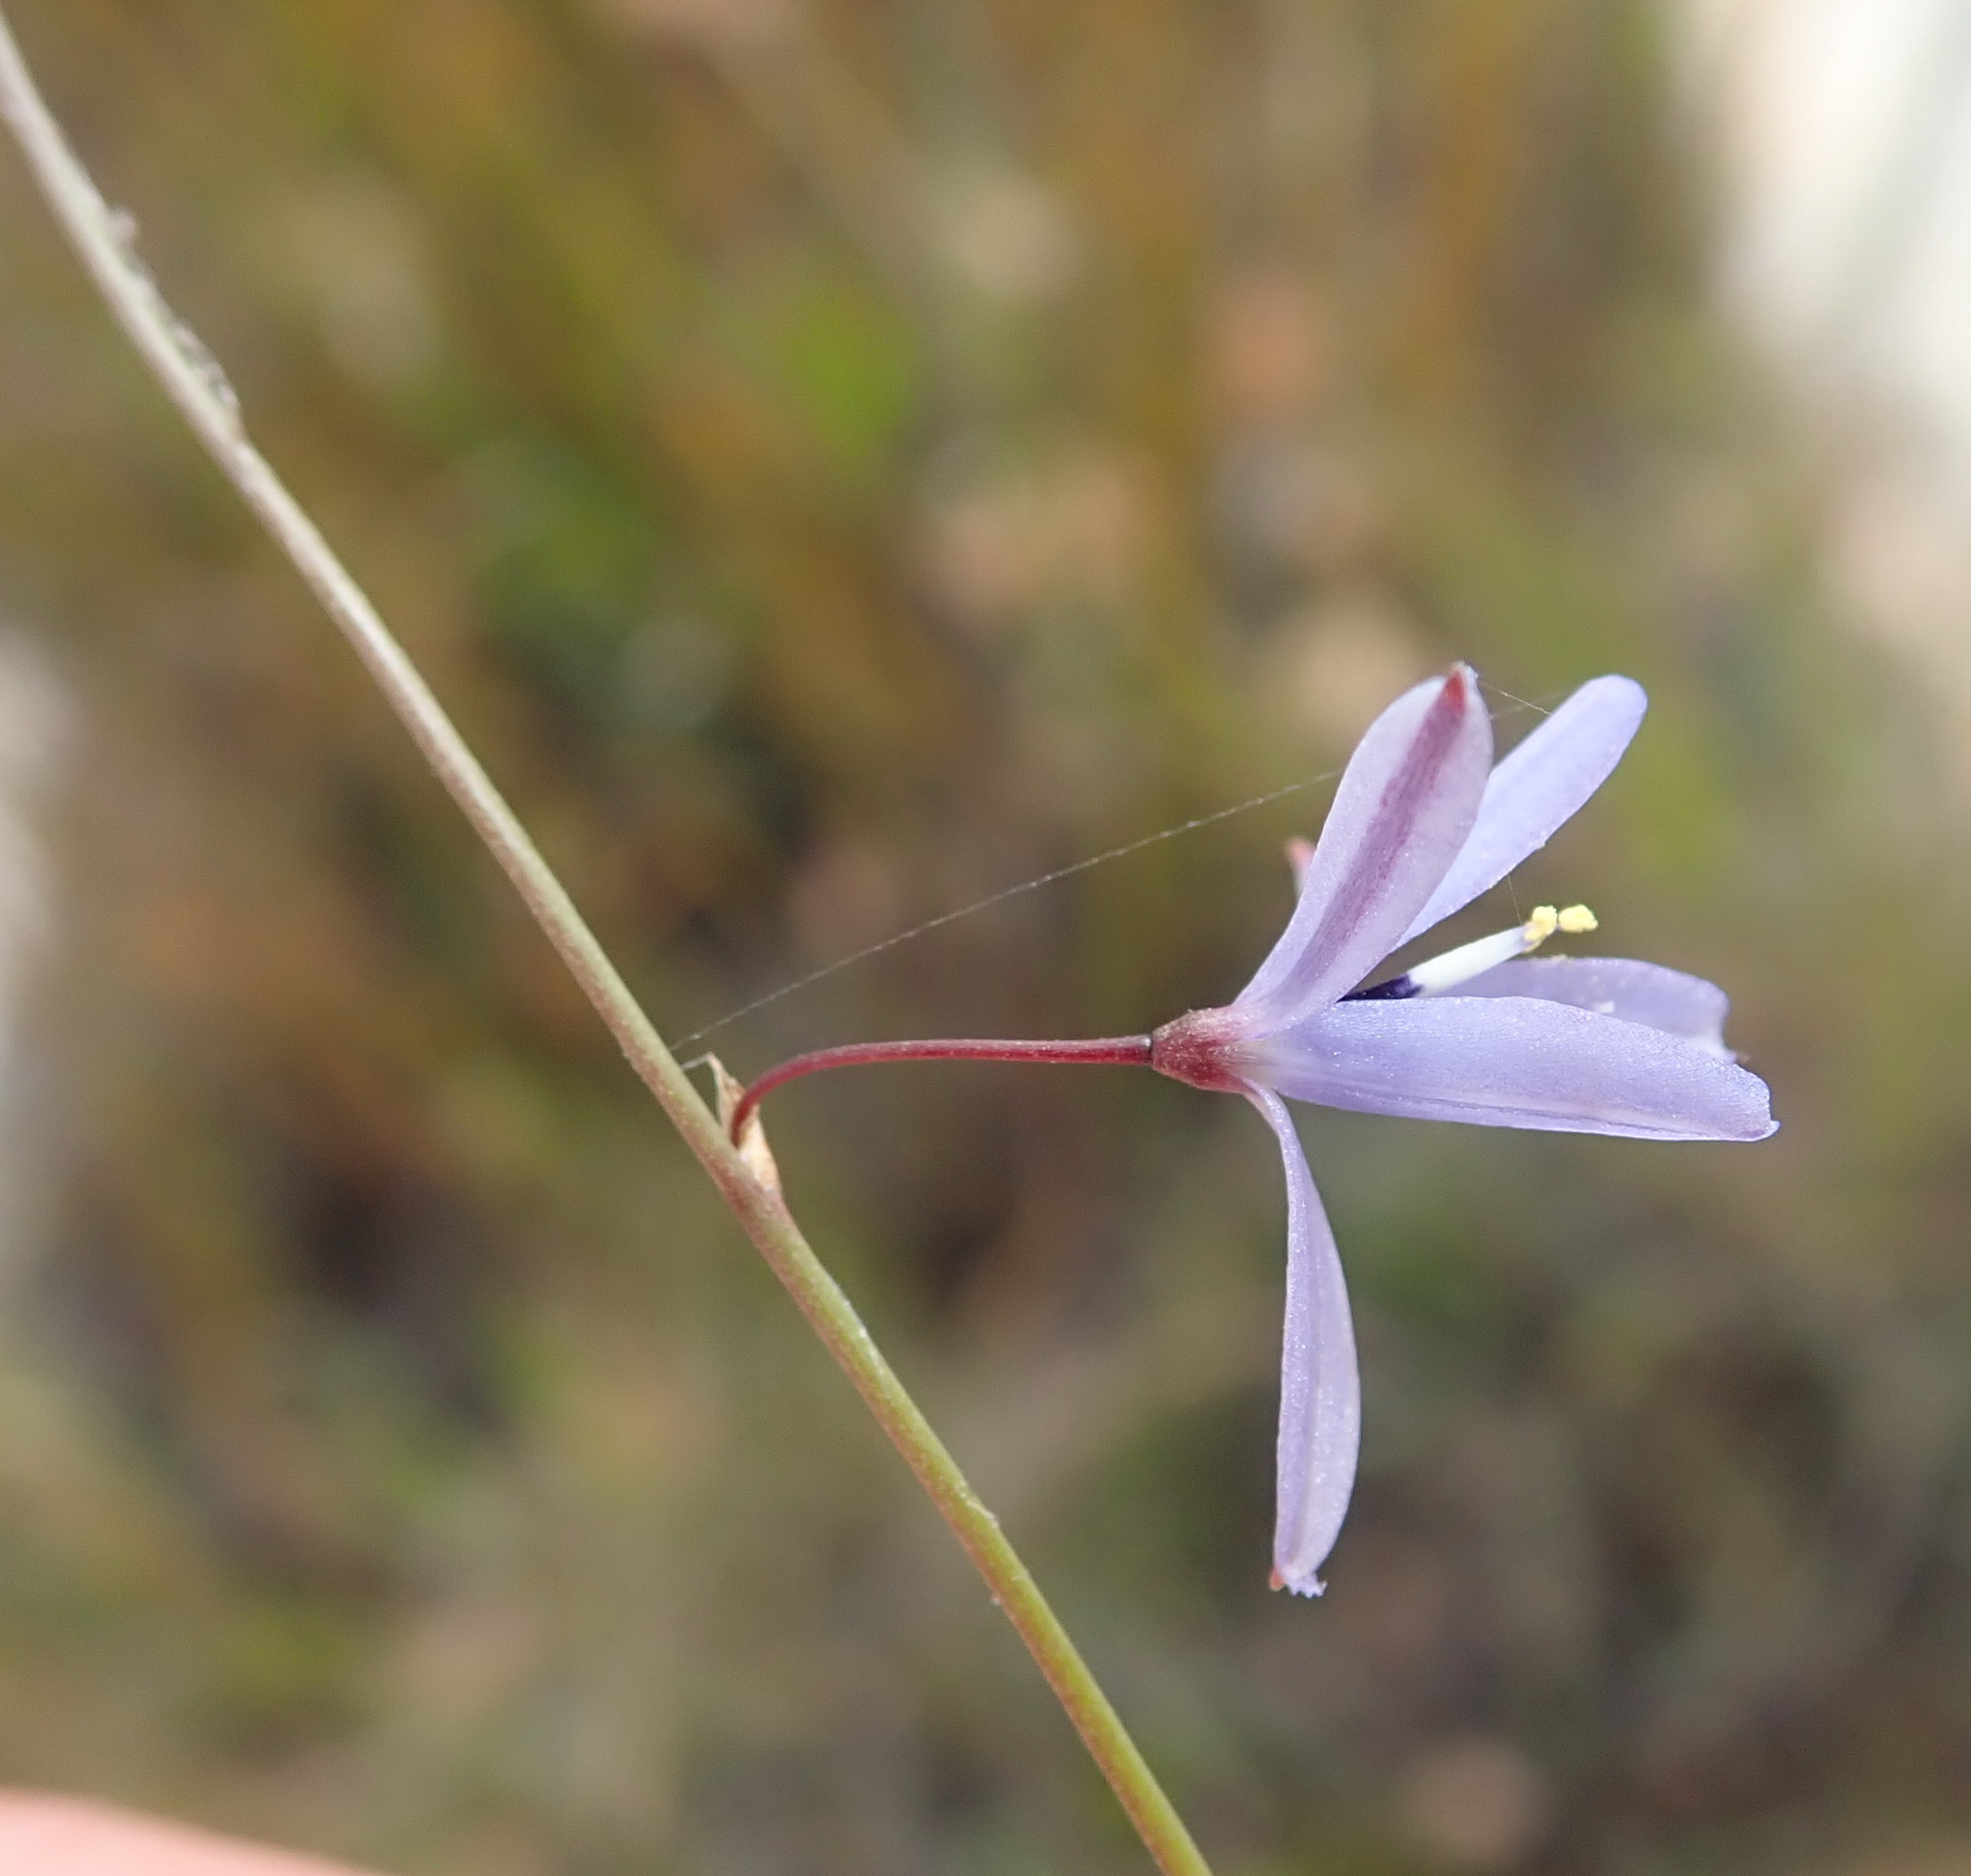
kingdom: Plantae
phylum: Tracheophyta
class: Liliopsida
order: Asparagales
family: Asphodelaceae
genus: Caesia
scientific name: Caesia contorta
